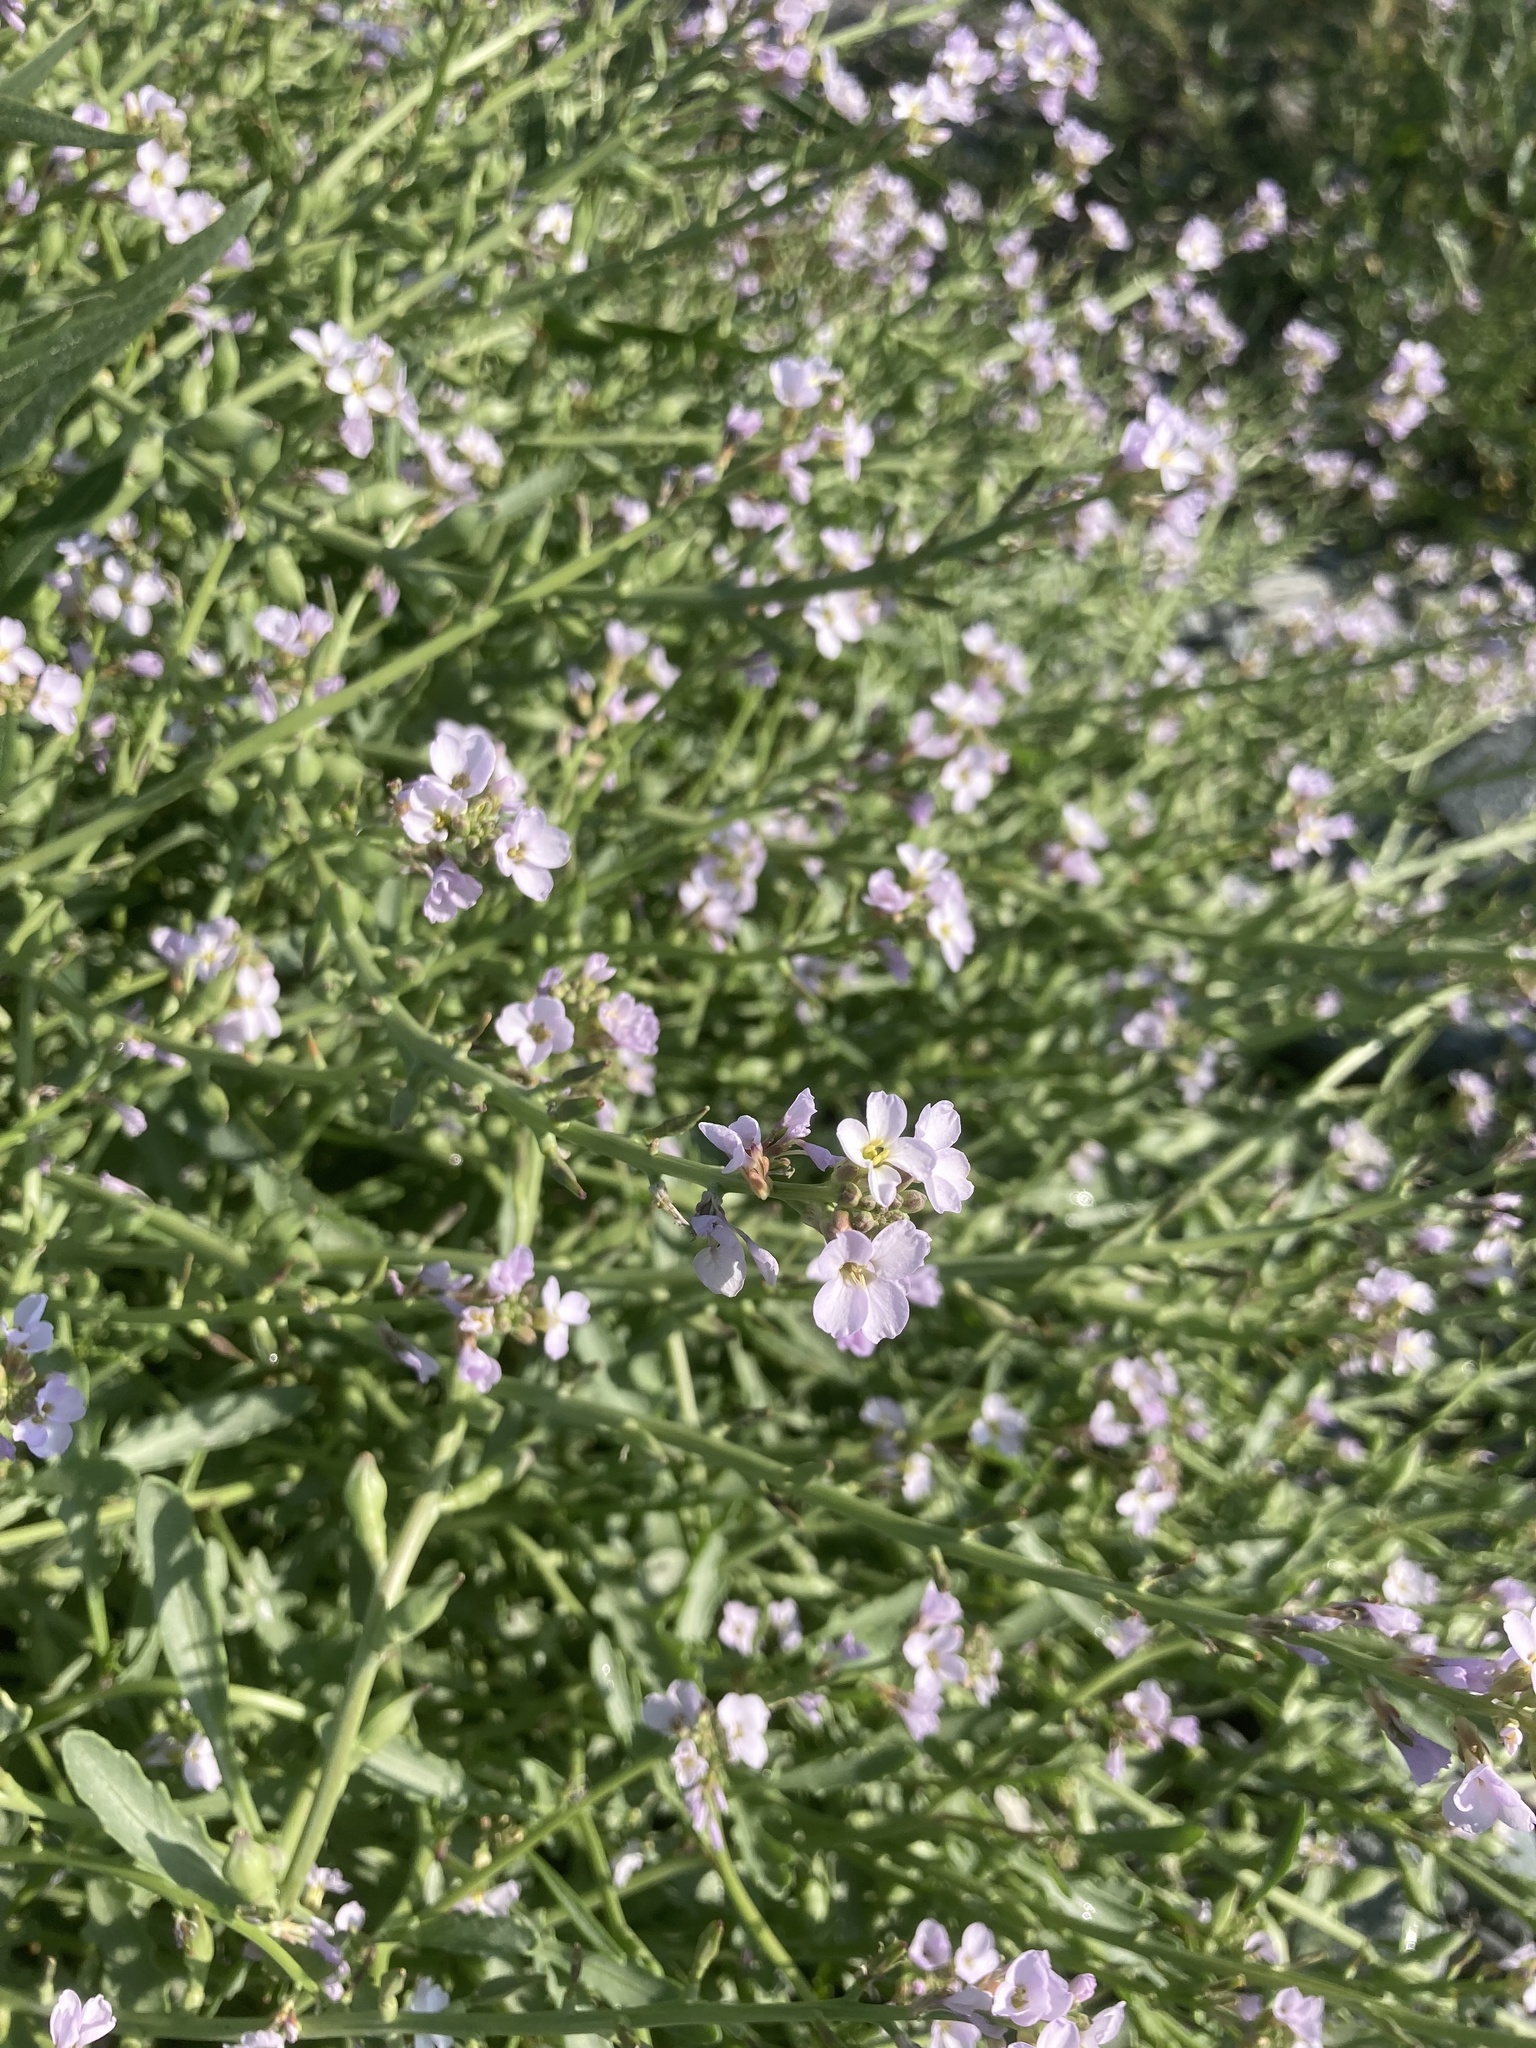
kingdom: Plantae
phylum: Tracheophyta
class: Magnoliopsida
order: Brassicales
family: Brassicaceae
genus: Cakile
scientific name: Cakile maritima
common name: Sea rocket
